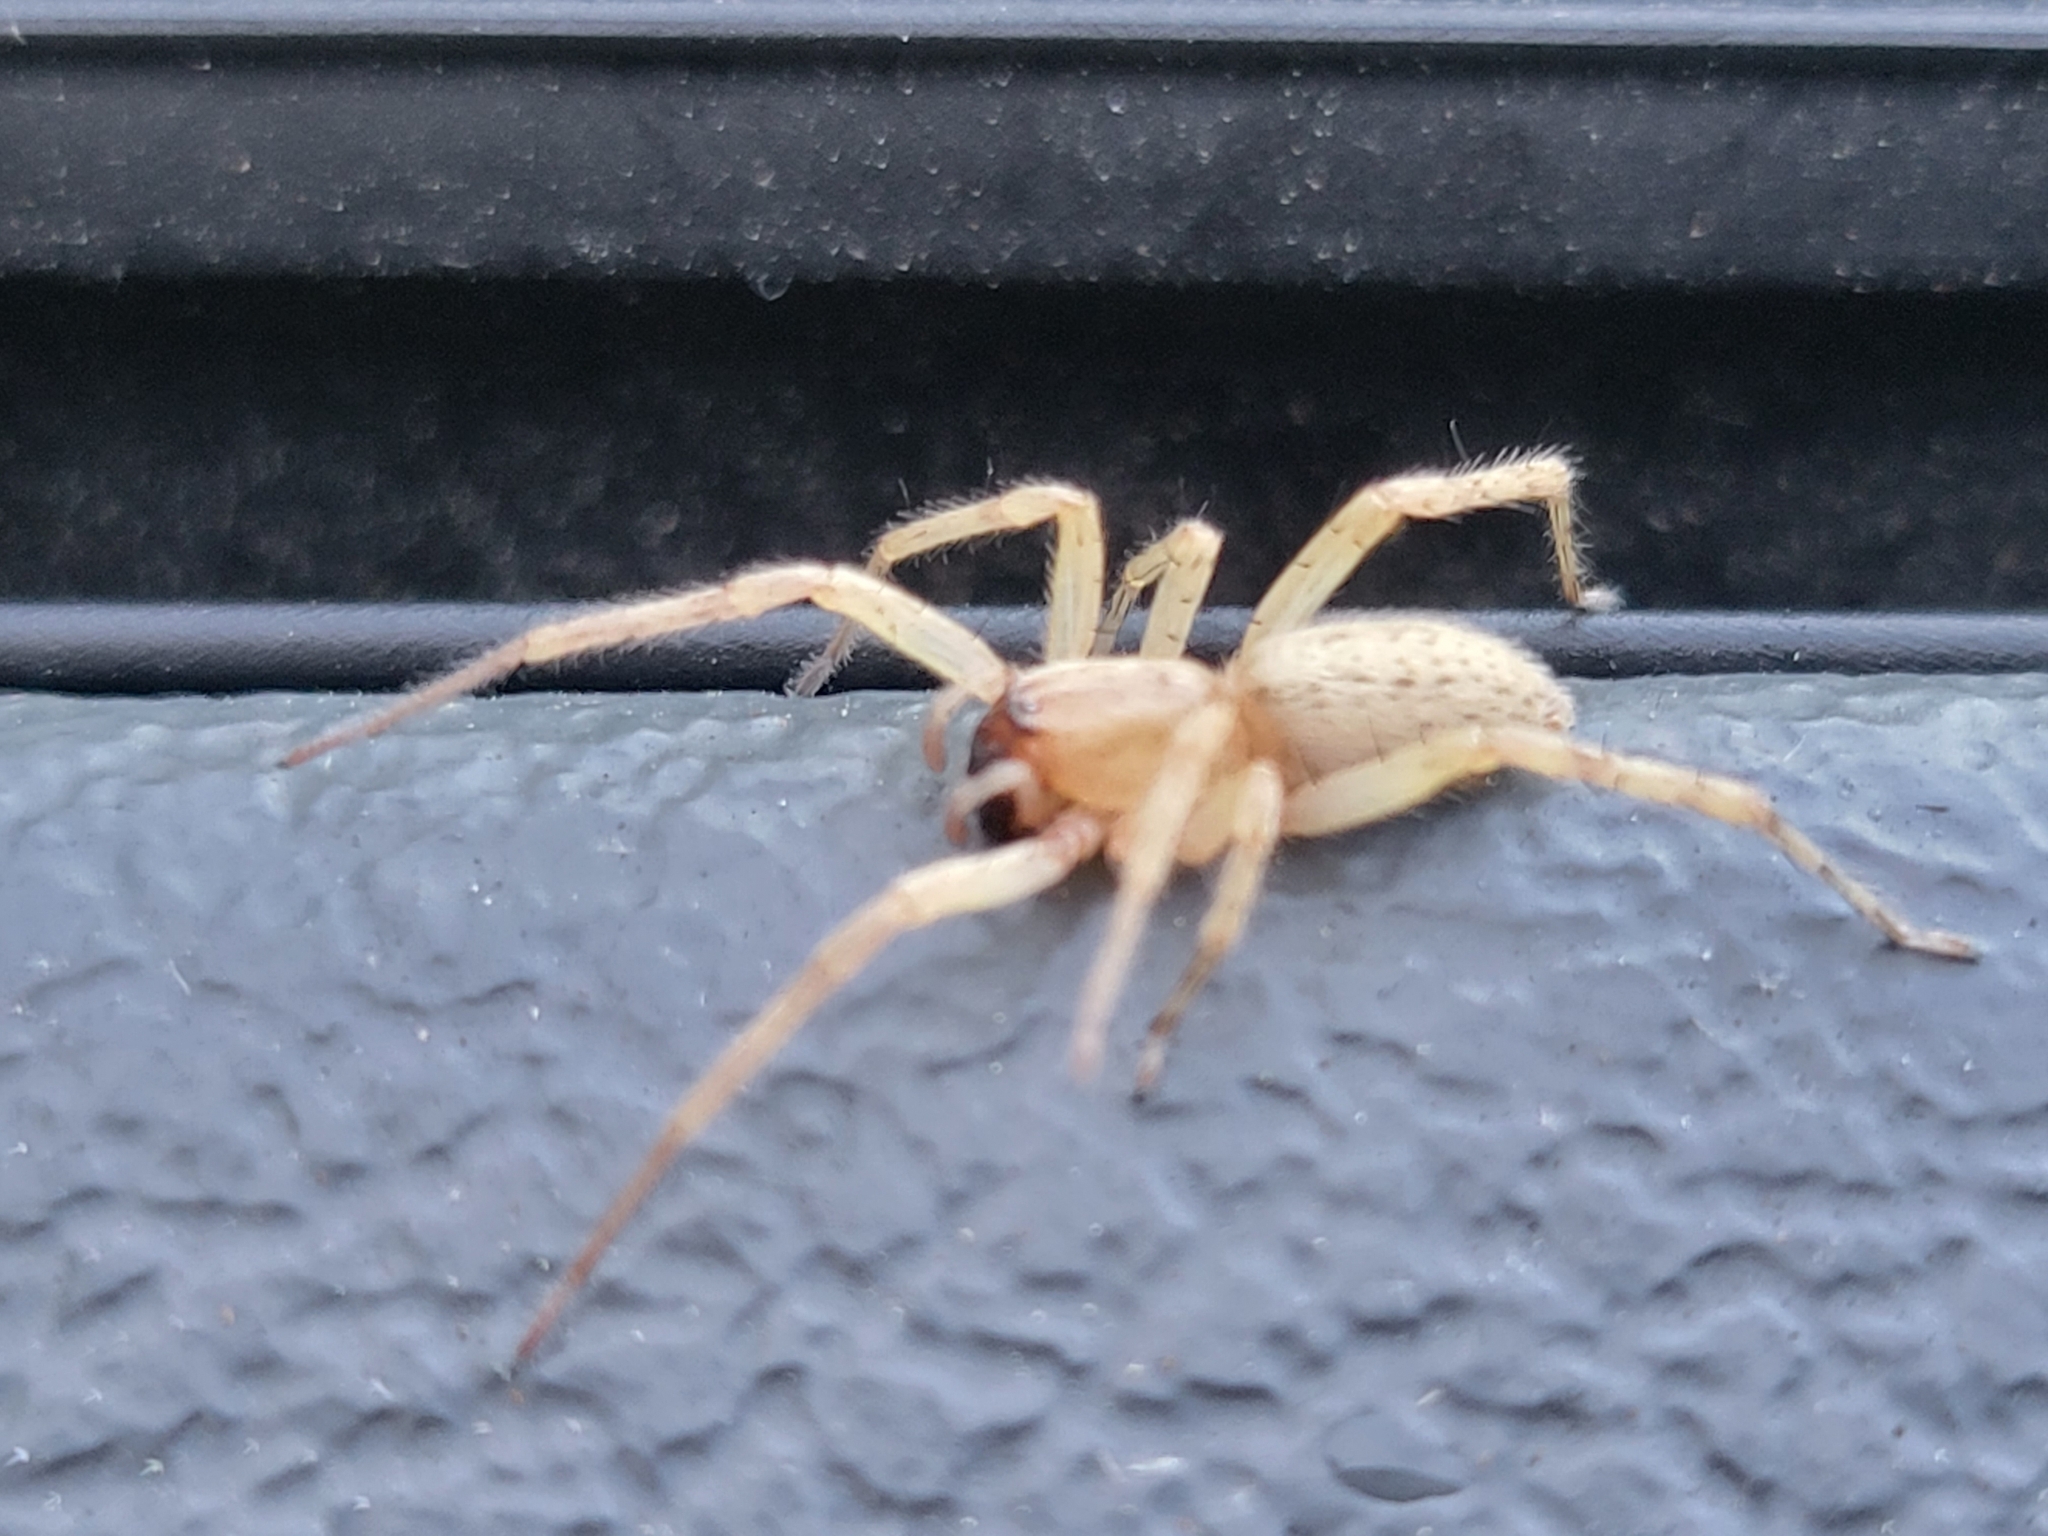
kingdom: Animalia
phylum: Arthropoda
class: Arachnida
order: Araneae
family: Anyphaenidae
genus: Hibana
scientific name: Hibana gracilis
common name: Garden ghost spider
